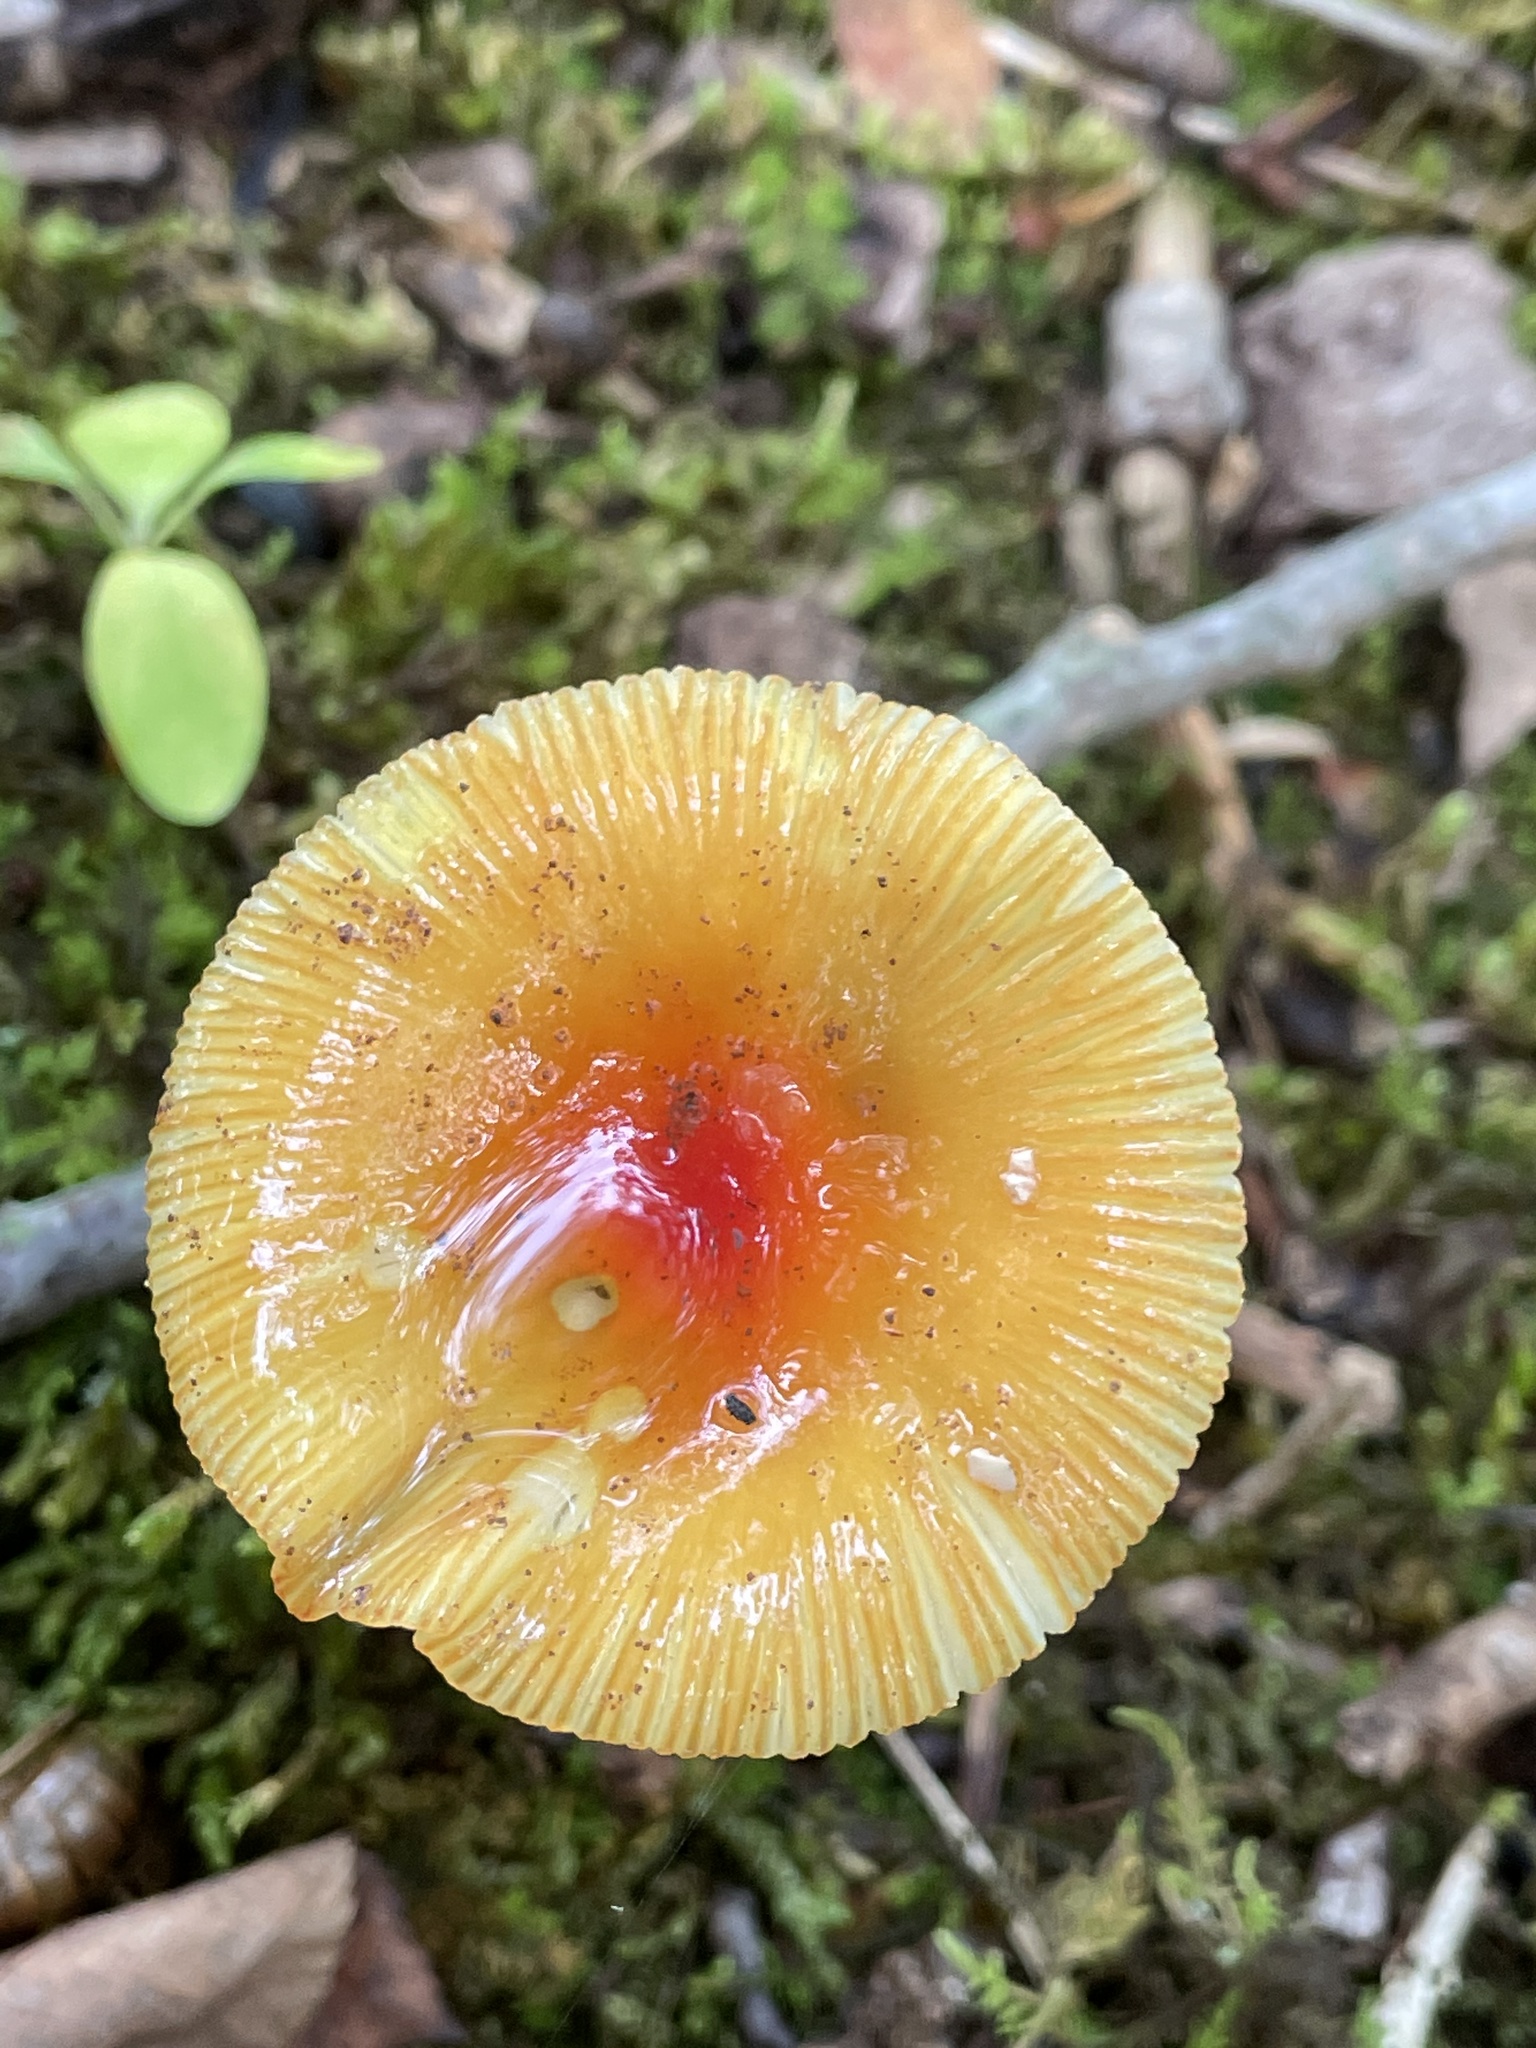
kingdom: Fungi
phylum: Basidiomycota
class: Agaricomycetes
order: Agaricales
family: Amanitaceae
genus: Amanita
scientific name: Amanita parcivolvata
